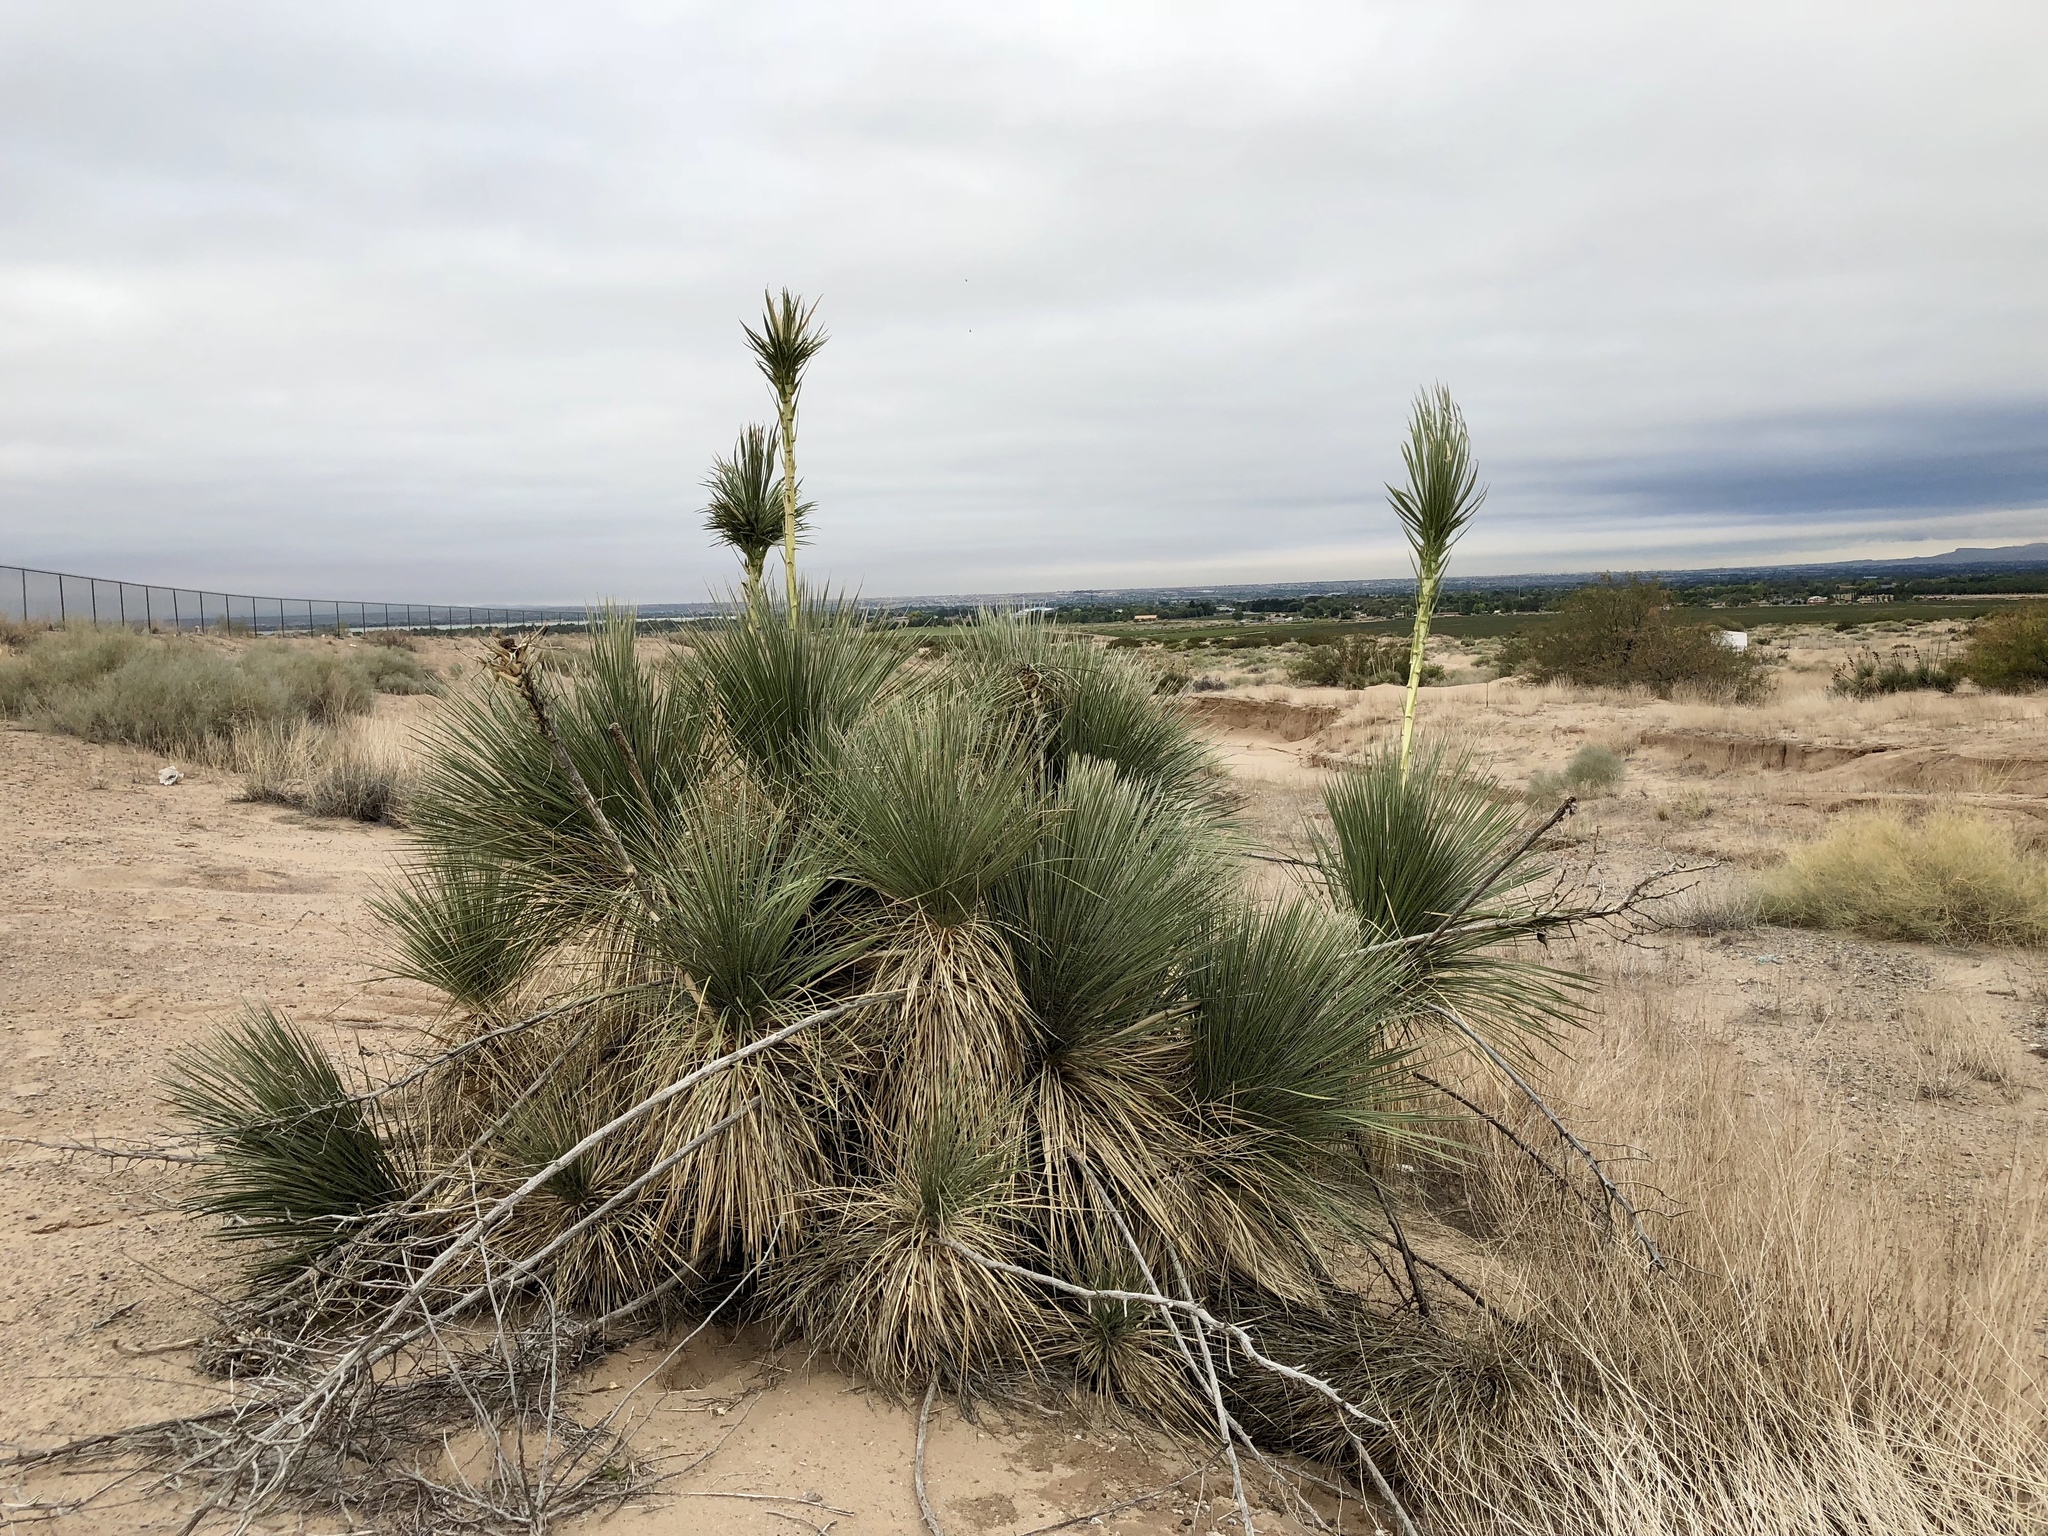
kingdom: Plantae
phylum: Tracheophyta
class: Liliopsida
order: Asparagales
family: Asparagaceae
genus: Yucca
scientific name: Yucca elata
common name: Palmella
